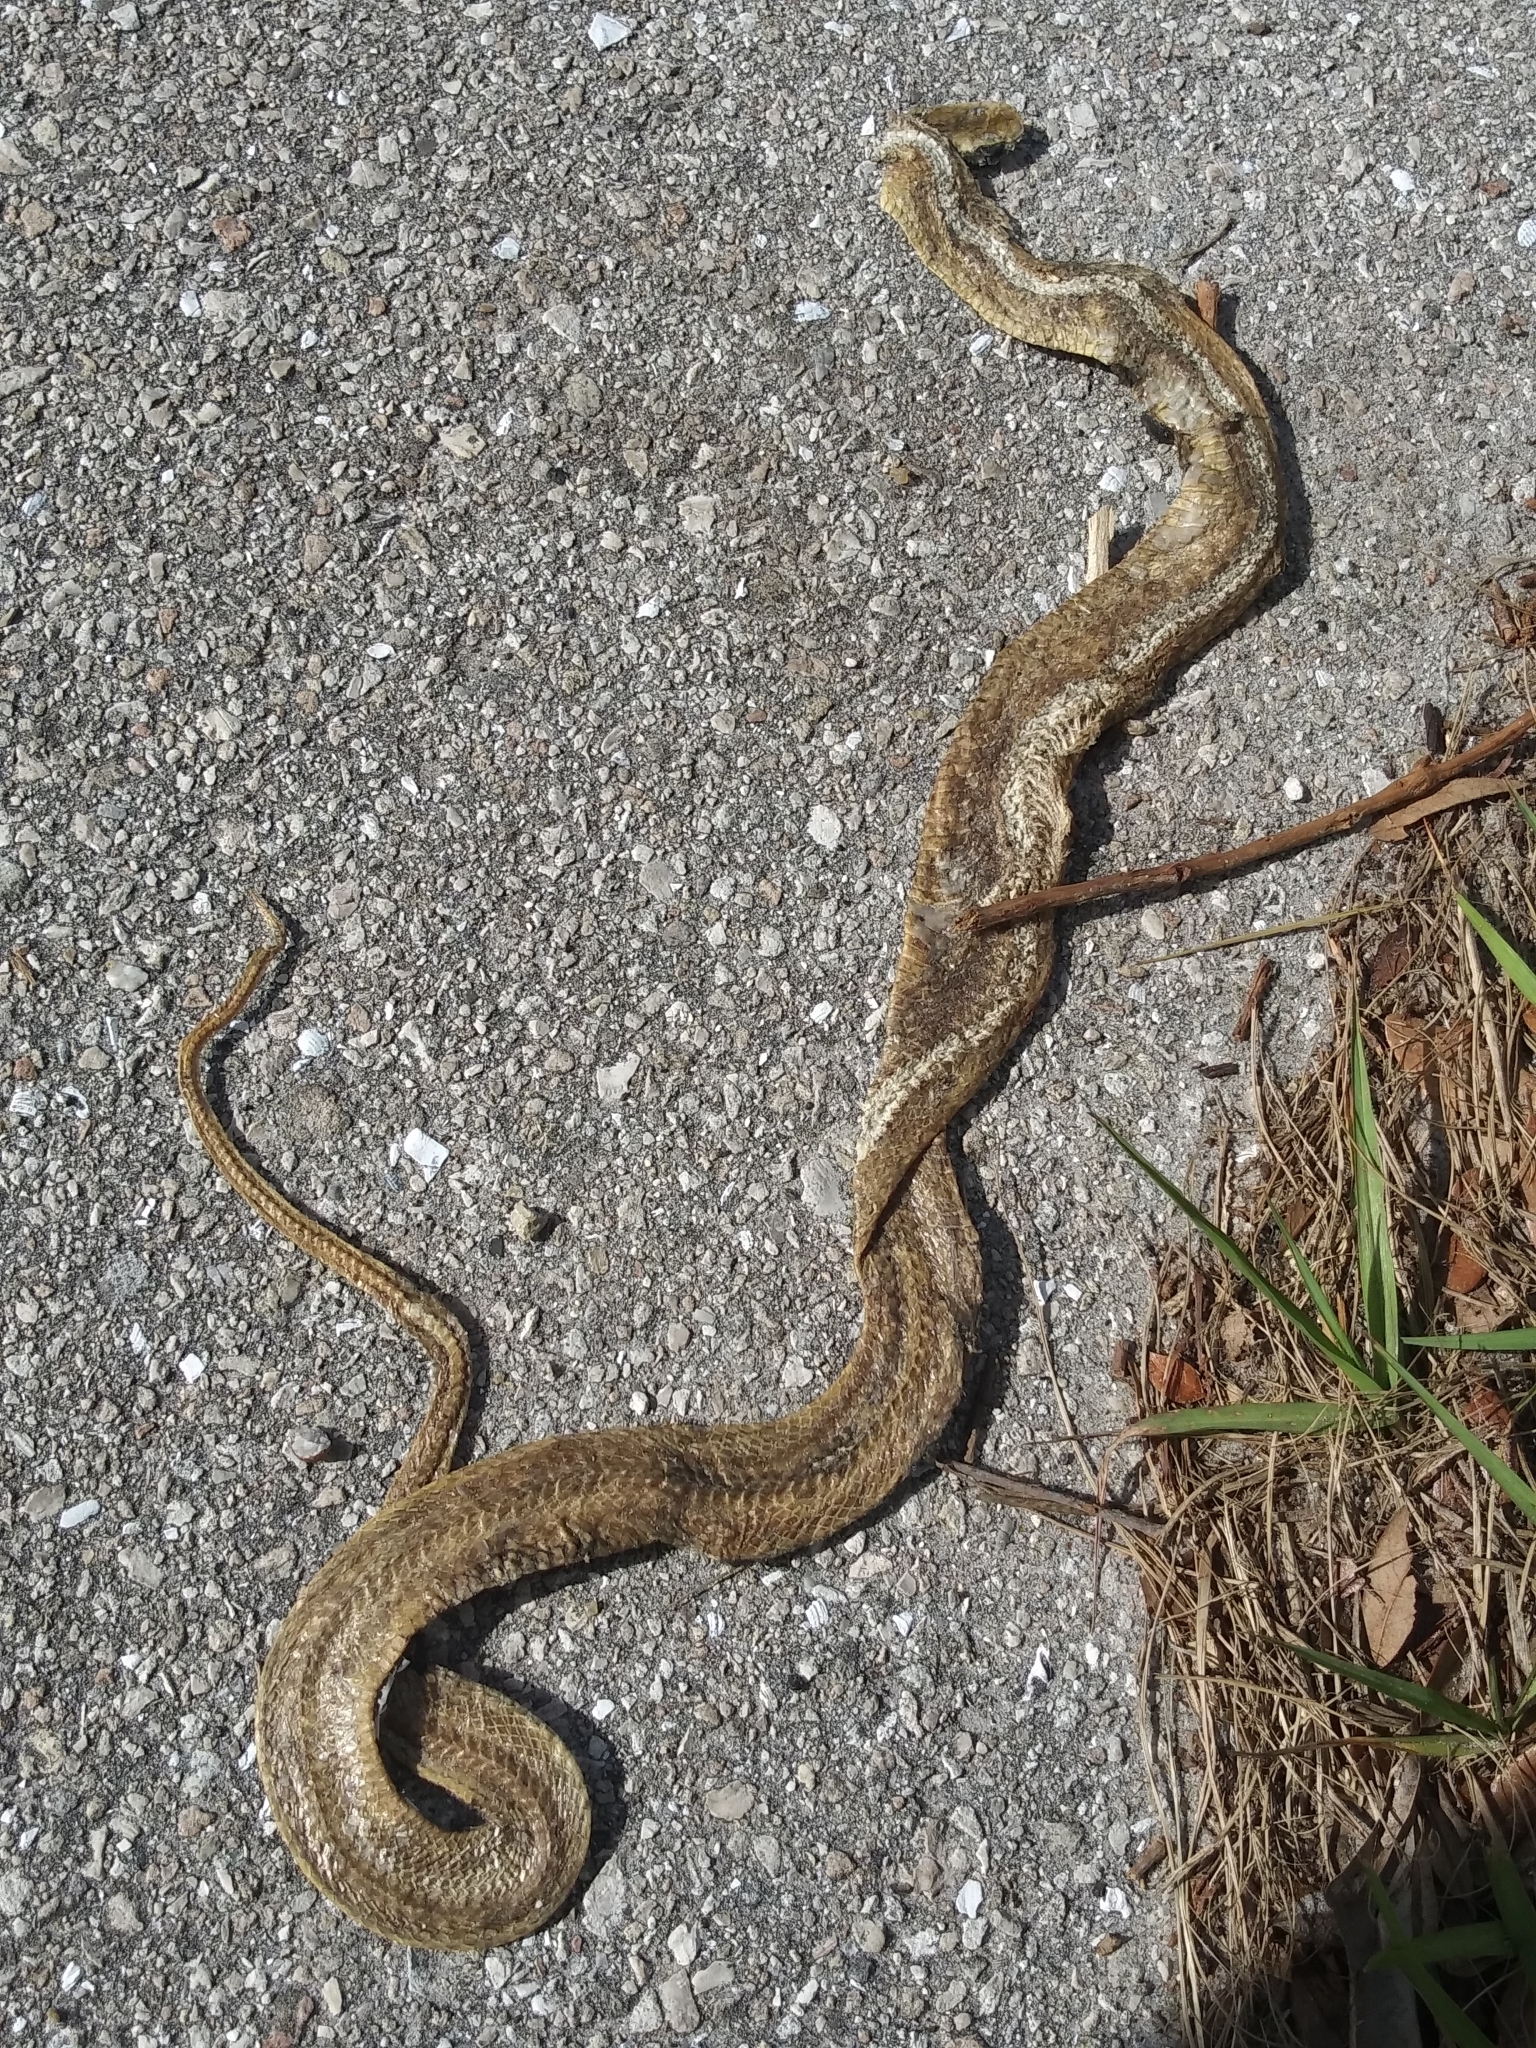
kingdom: Animalia
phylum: Chordata
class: Squamata
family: Colubridae
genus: Pantherophis
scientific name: Pantherophis alleghaniensis
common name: Eastern rat snake
